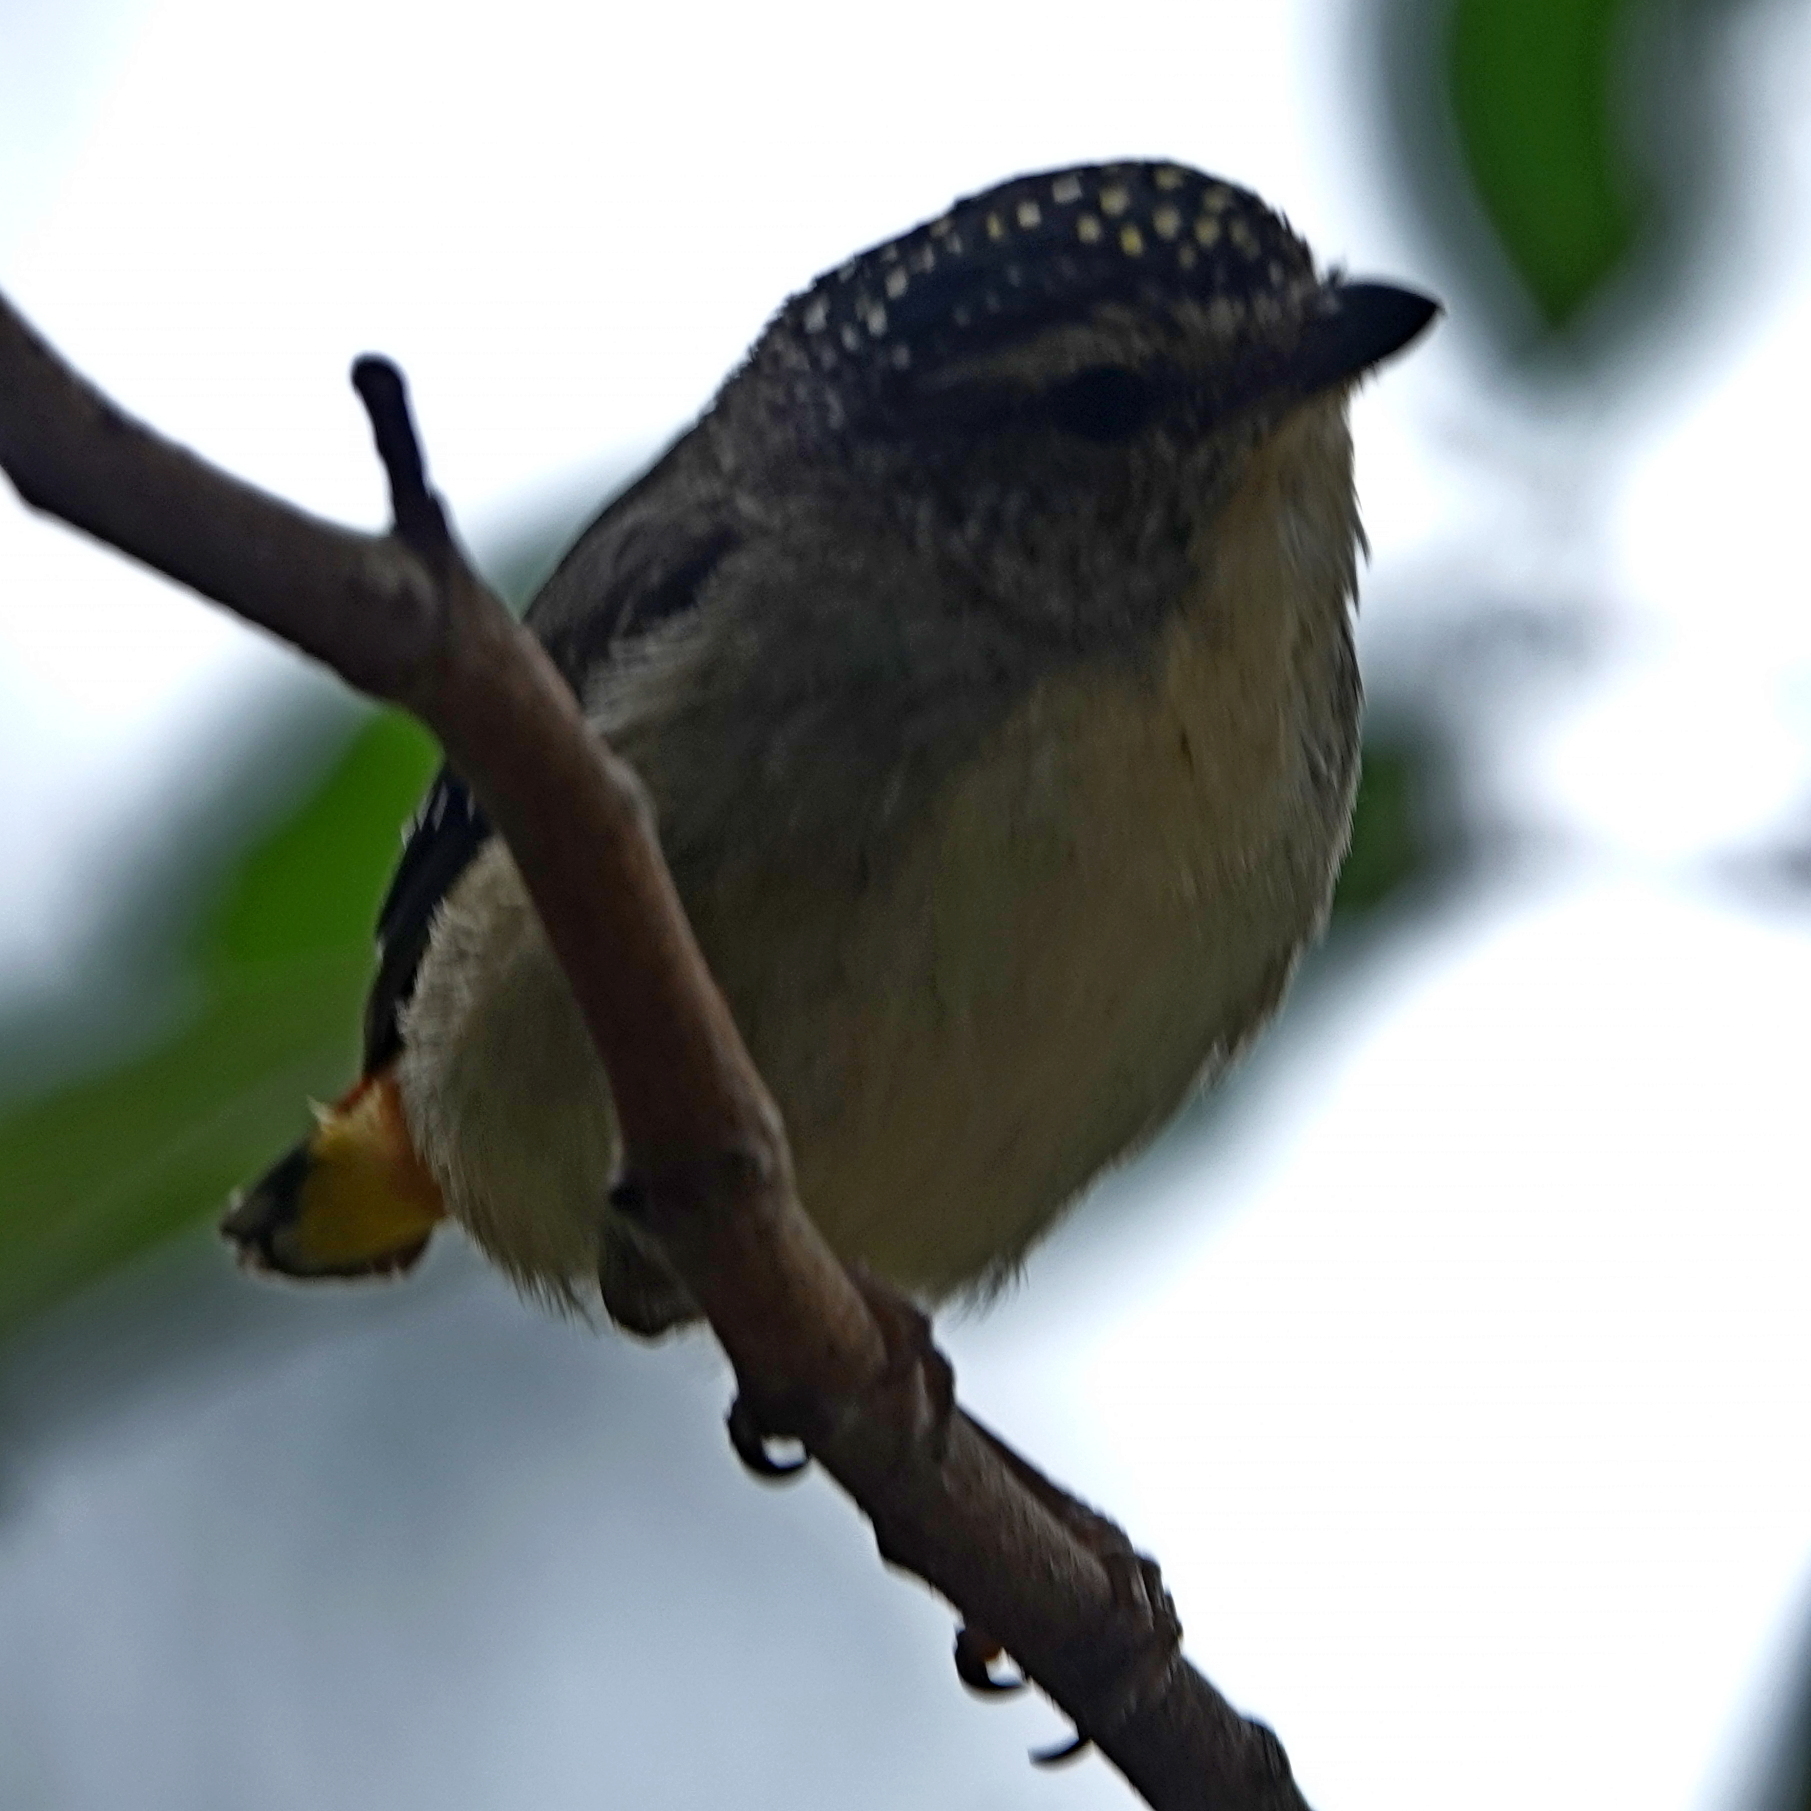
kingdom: Animalia
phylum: Chordata
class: Aves
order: Passeriformes
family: Pardalotidae
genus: Pardalotus
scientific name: Pardalotus punctatus
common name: Spotted pardalote
